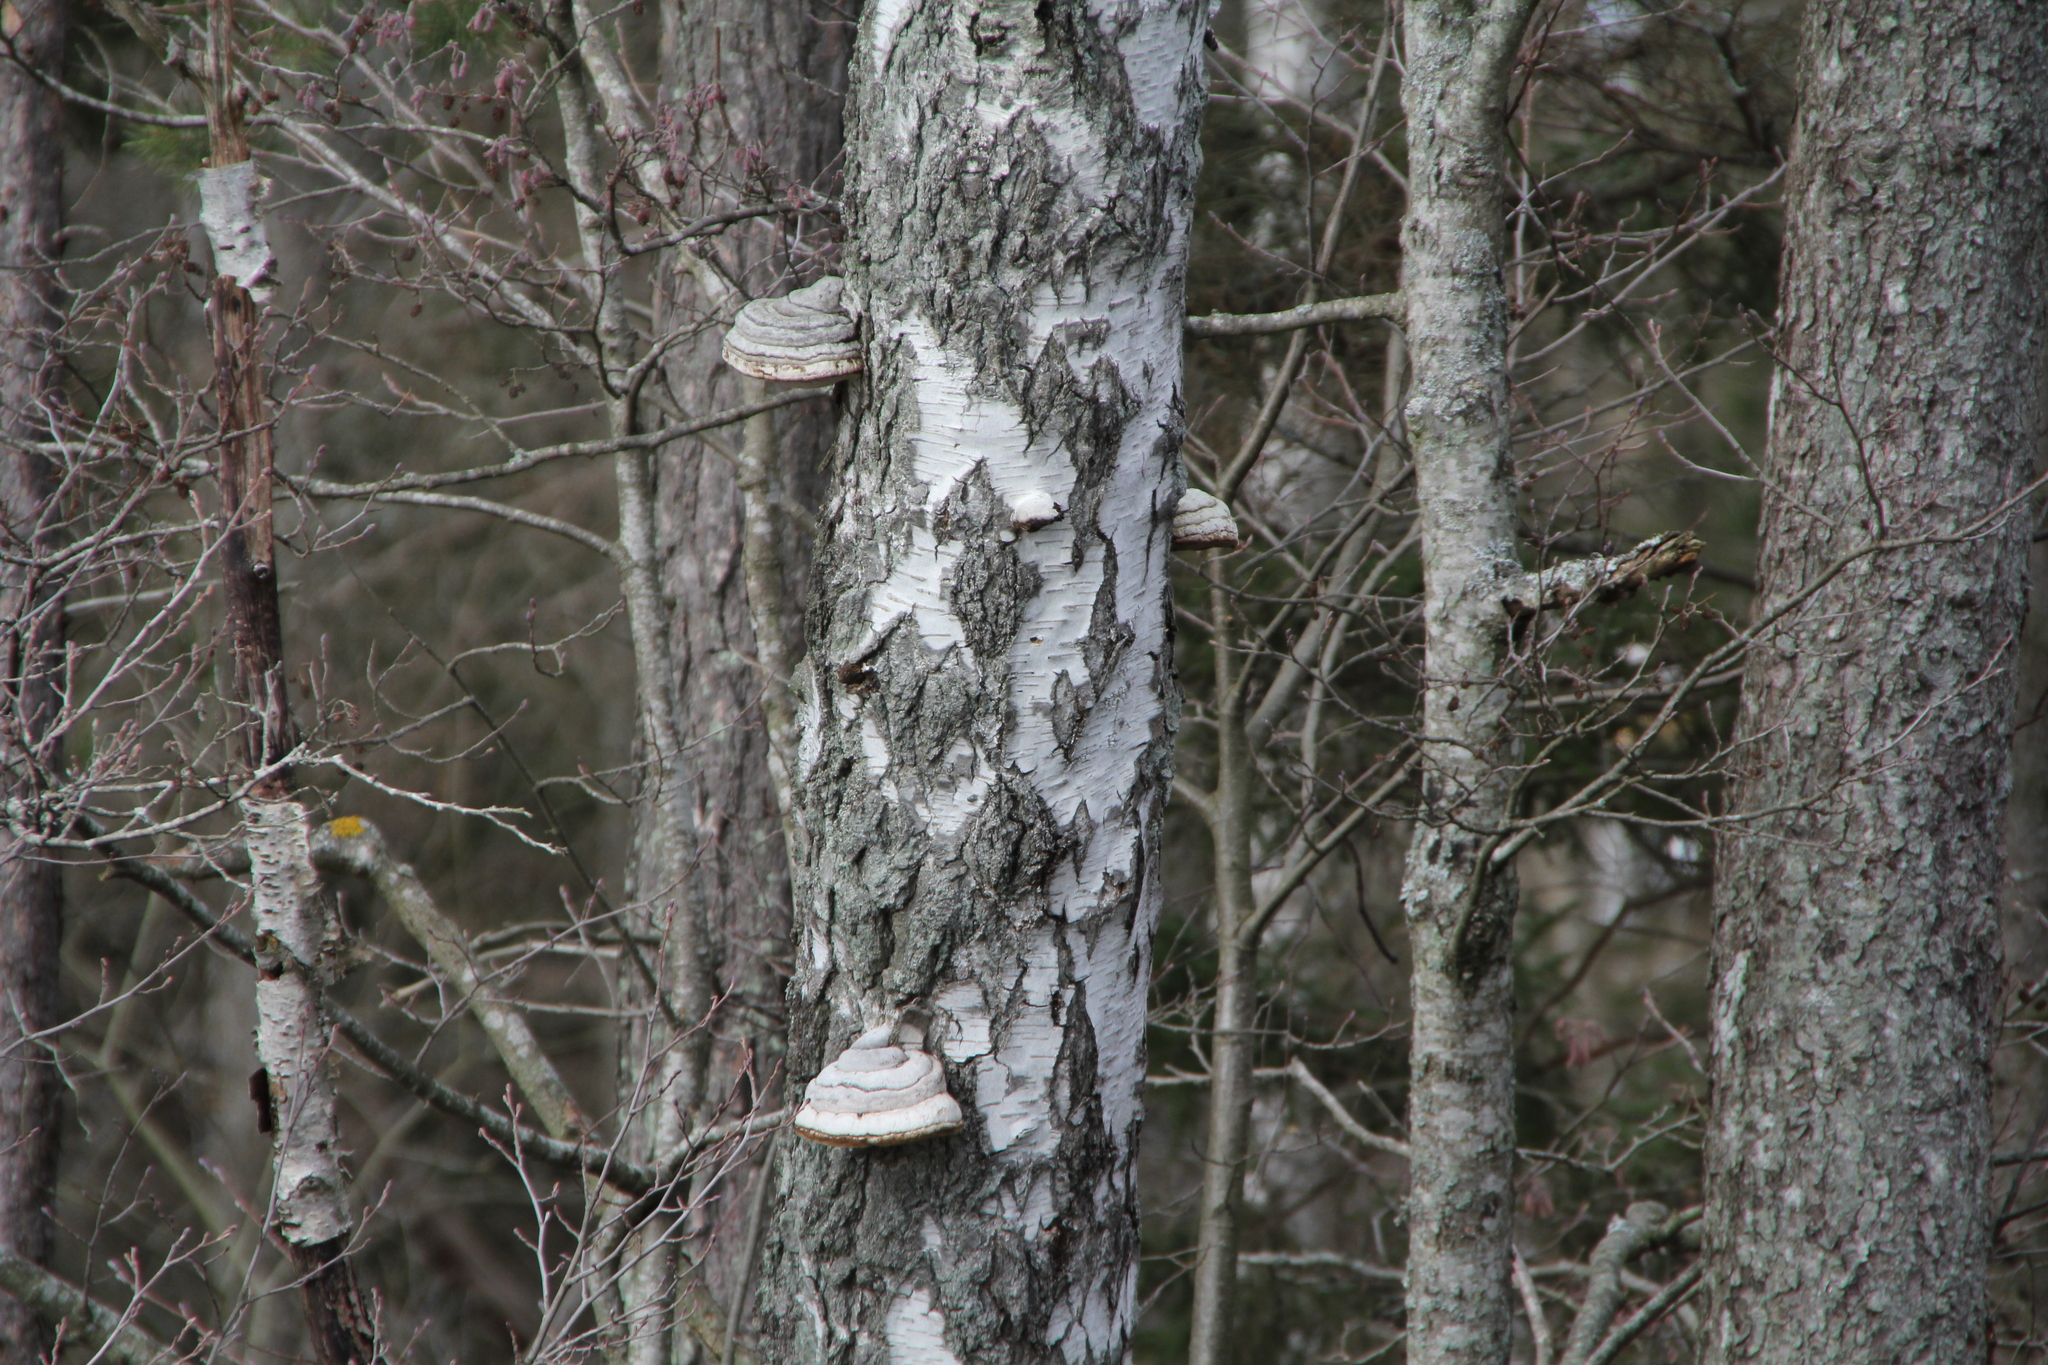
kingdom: Fungi
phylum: Basidiomycota
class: Agaricomycetes
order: Polyporales
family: Polyporaceae
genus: Fomes
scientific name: Fomes fomentarius
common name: Hoof fungus
